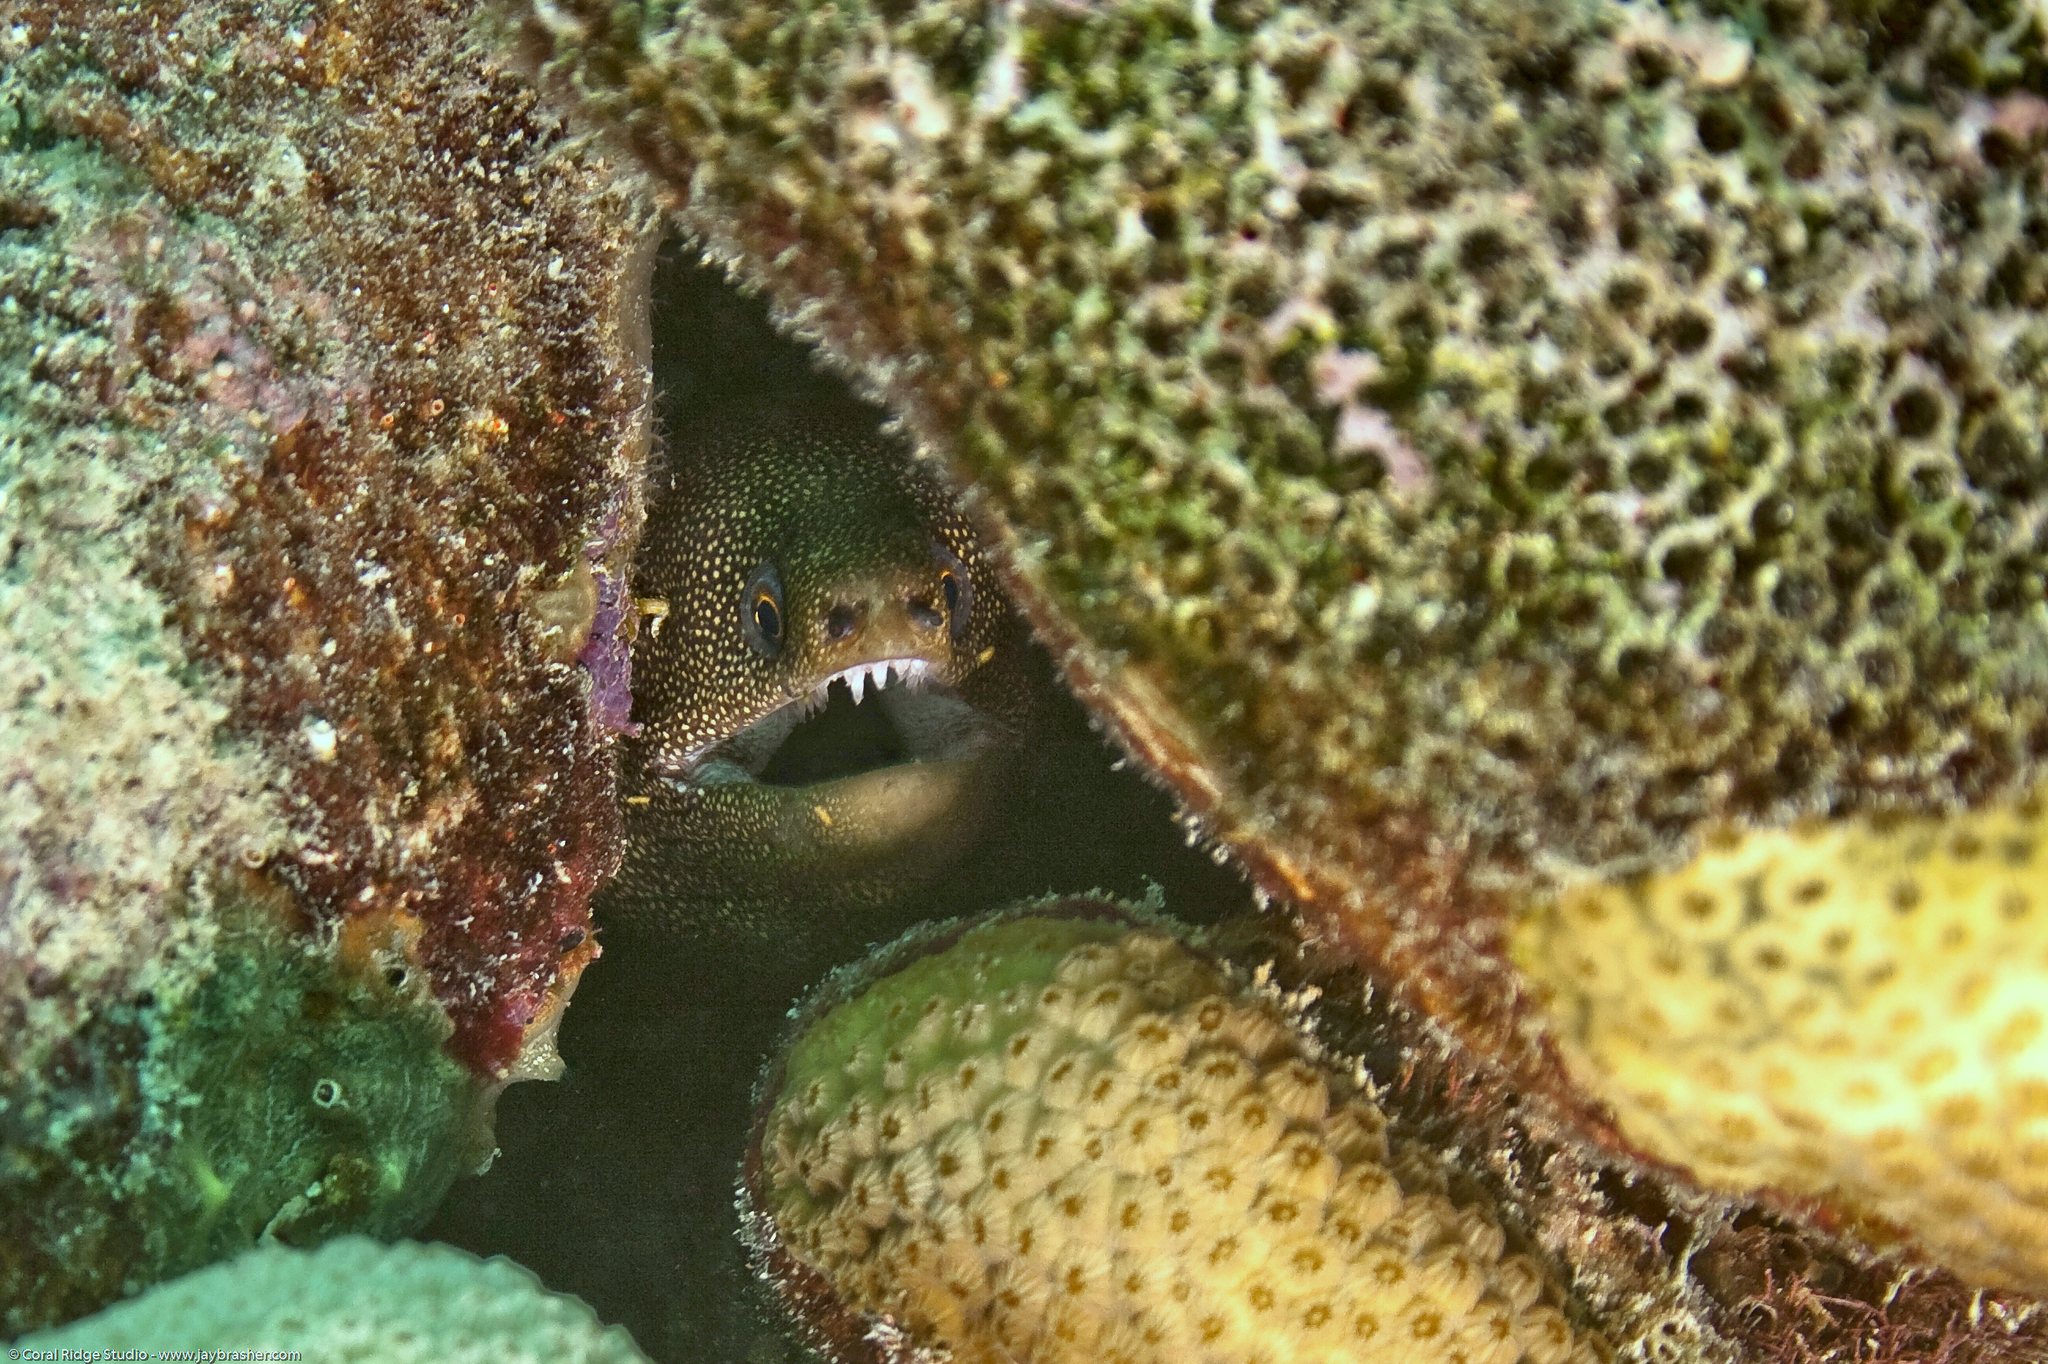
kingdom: Animalia
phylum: Chordata
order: Anguilliformes
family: Muraenidae
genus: Gymnothorax
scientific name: Gymnothorax miliaris
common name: Goldentail moray
